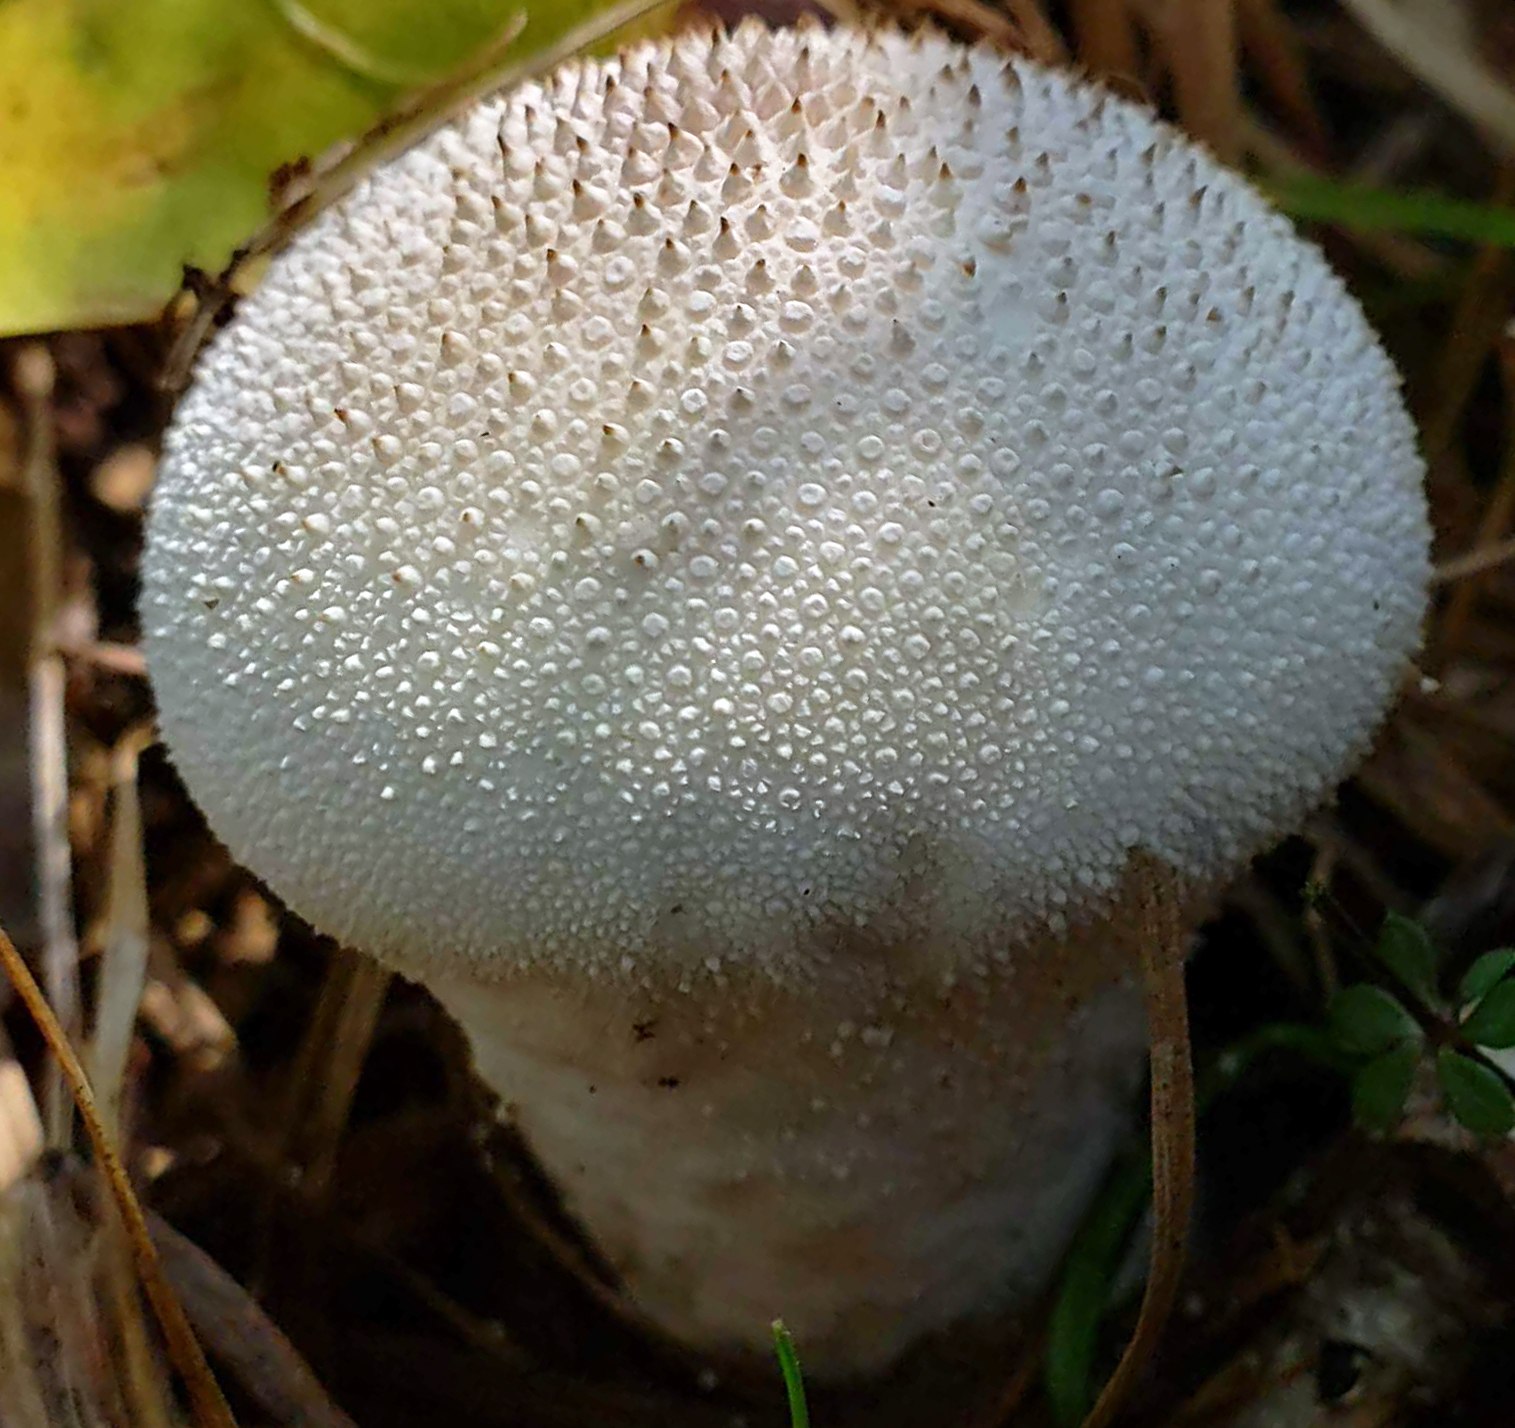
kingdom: Fungi
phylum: Basidiomycota
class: Agaricomycetes
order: Agaricales
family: Lycoperdaceae
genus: Lycoperdon
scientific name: Lycoperdon perlatum
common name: Common puffball
